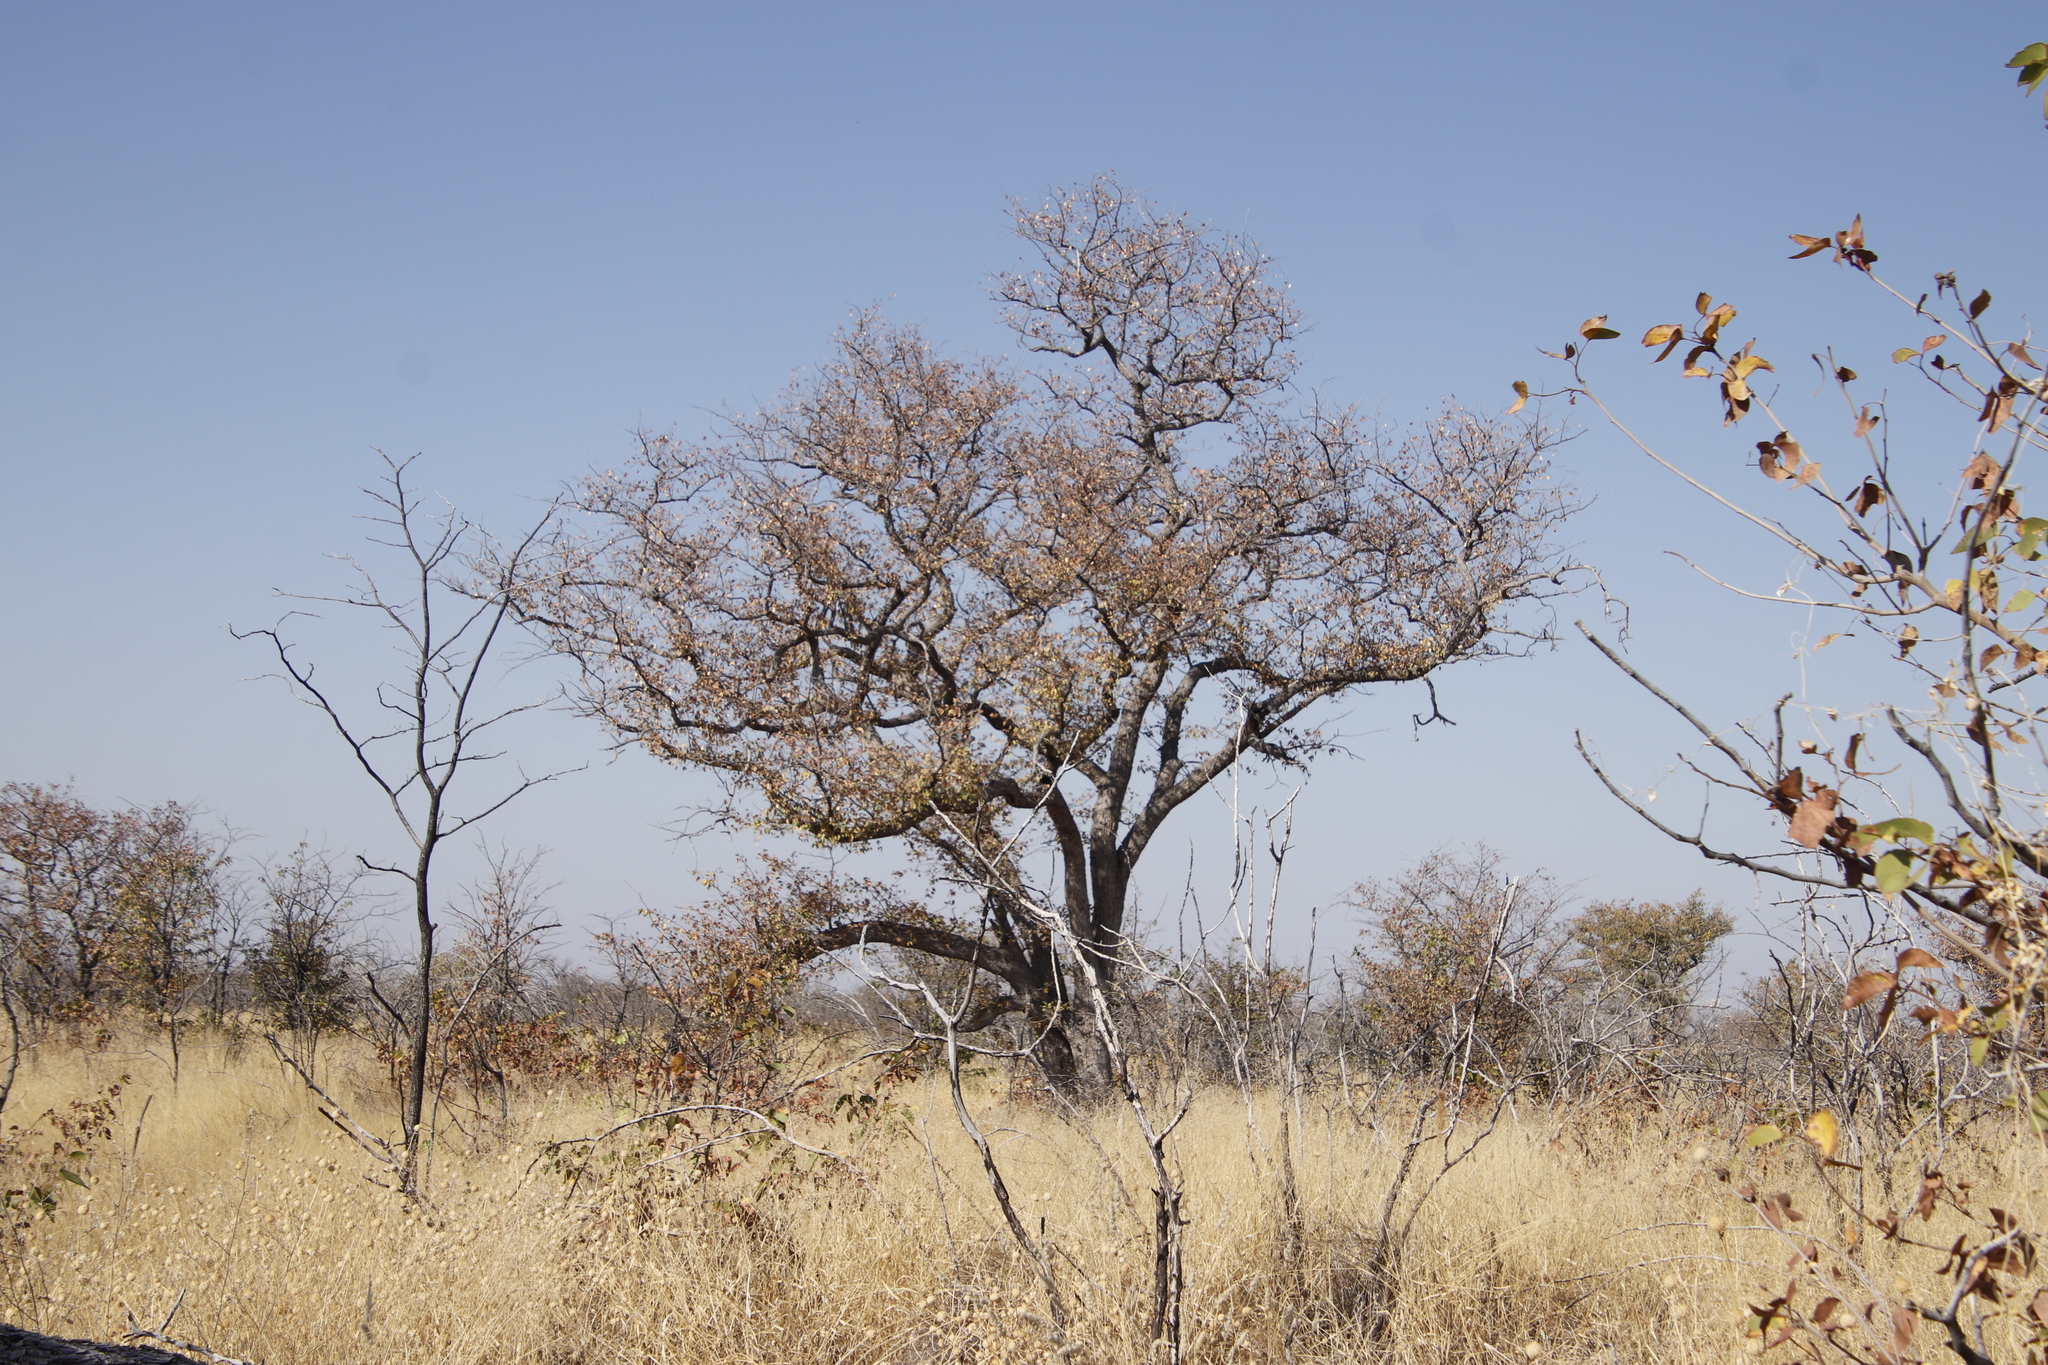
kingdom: Plantae
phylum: Tracheophyta
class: Magnoliopsida
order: Fabales
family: Fabaceae
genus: Colophospermum
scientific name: Colophospermum mopane
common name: Mopane
